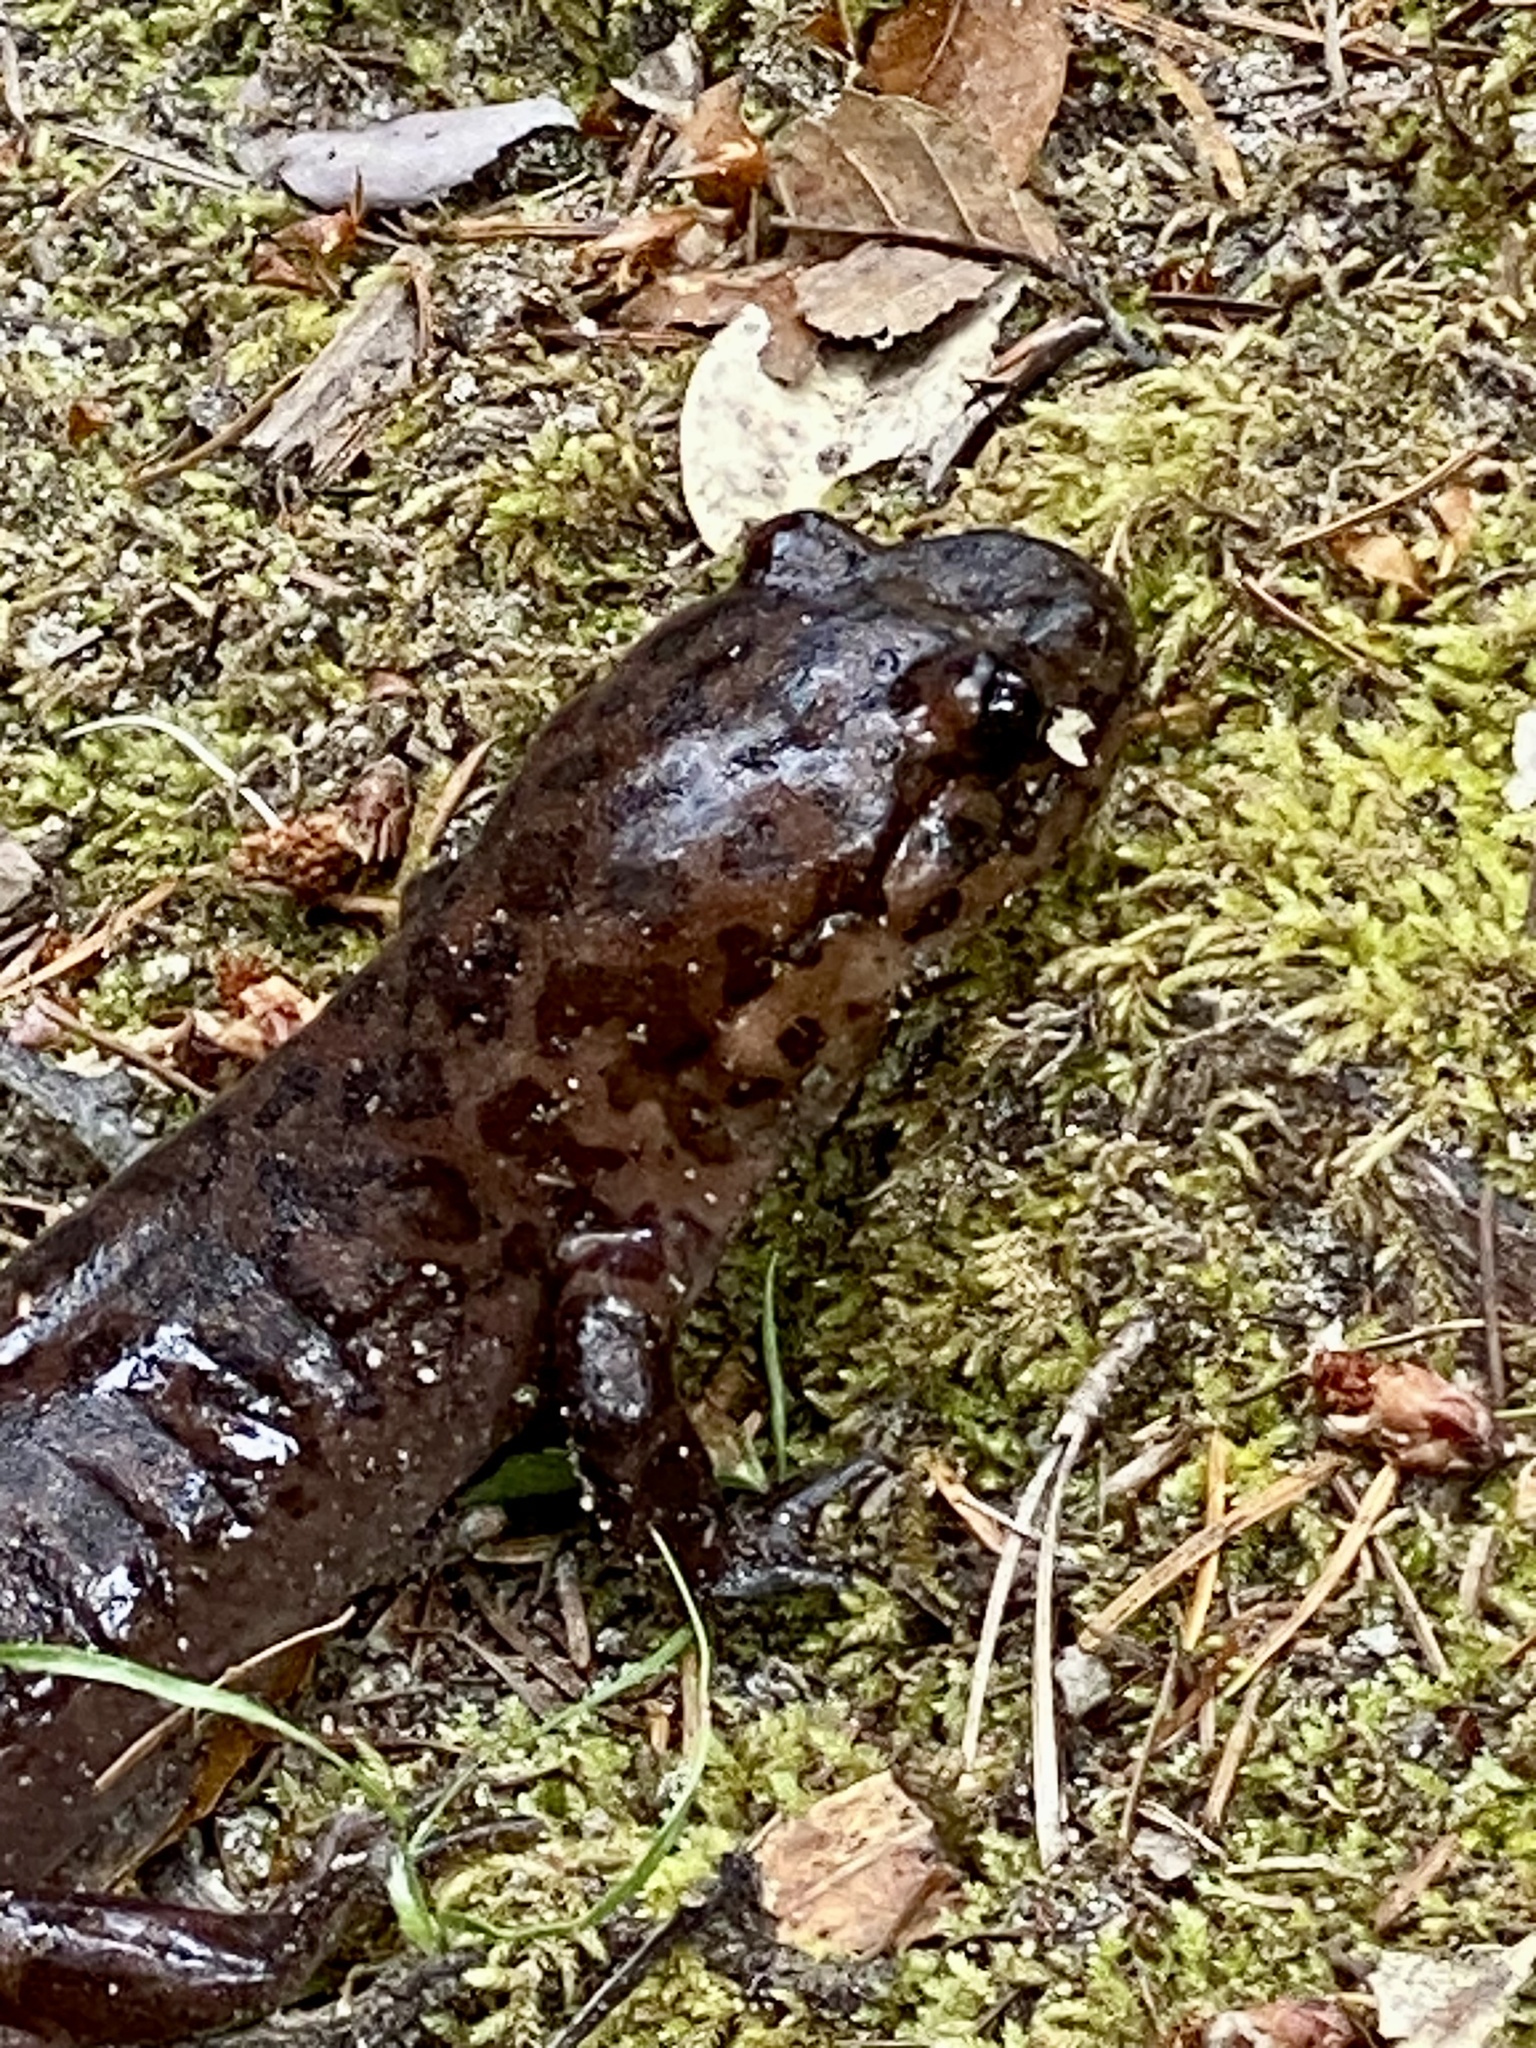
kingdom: Animalia
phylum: Chordata
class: Amphibia
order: Caudata
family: Ambystomatidae
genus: Dicamptodon
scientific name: Dicamptodon ensatus
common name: California giant salamander
